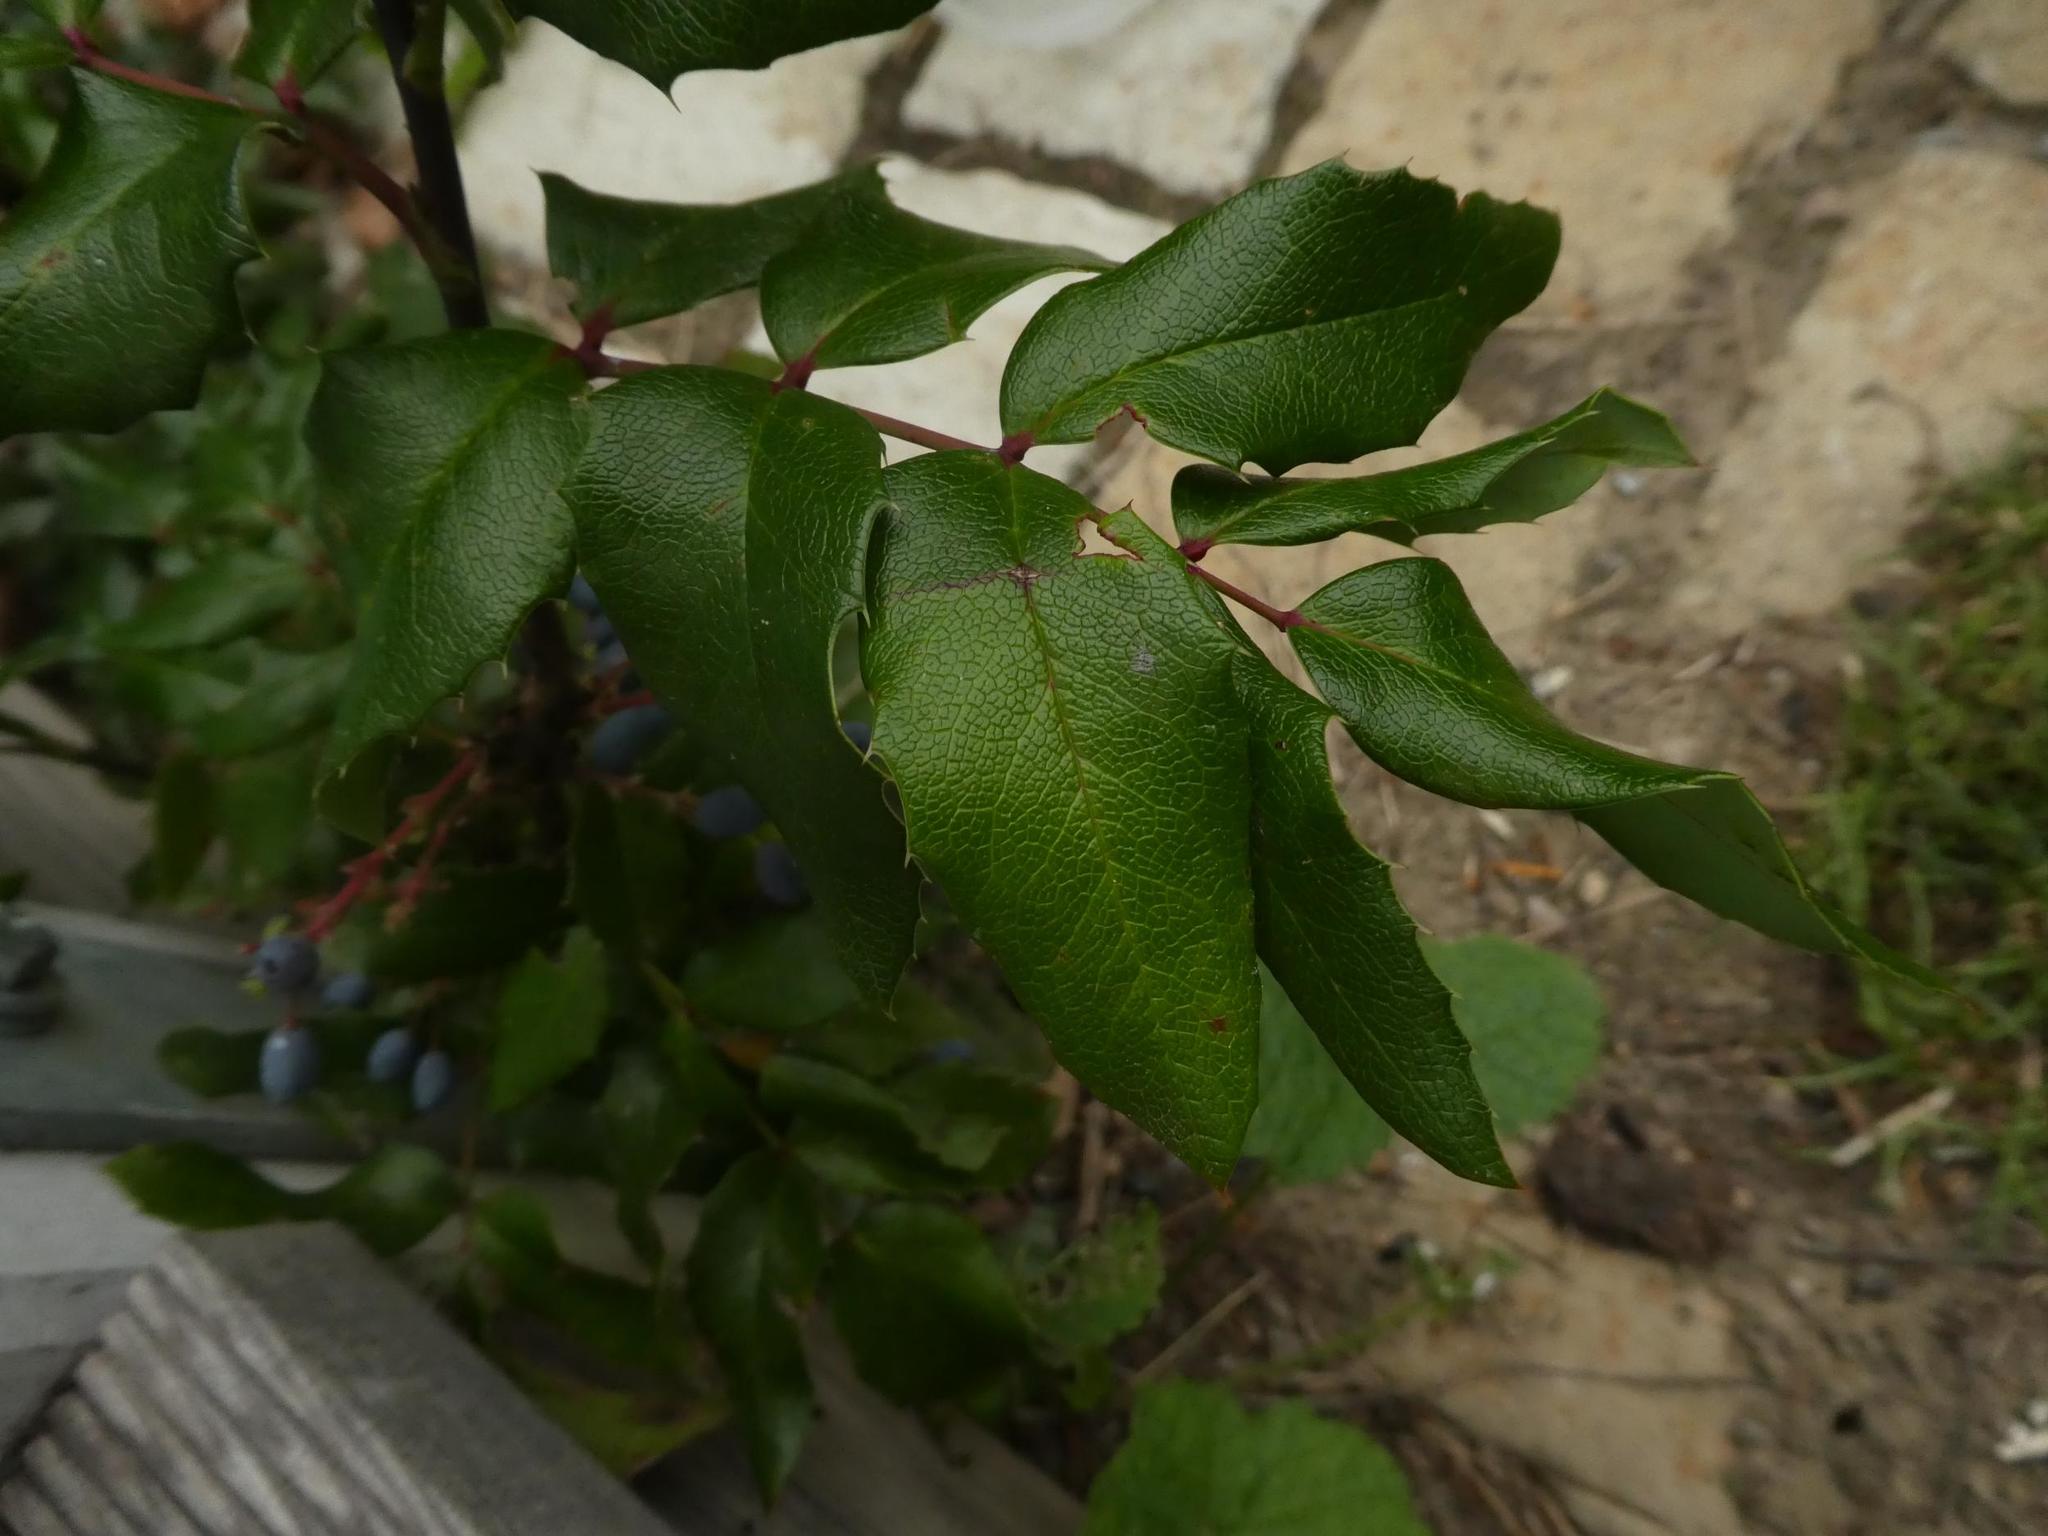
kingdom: Plantae
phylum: Tracheophyta
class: Magnoliopsida
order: Ranunculales
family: Berberidaceae
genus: Mahonia
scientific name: Mahonia aquifolium
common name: Oregon-grape
